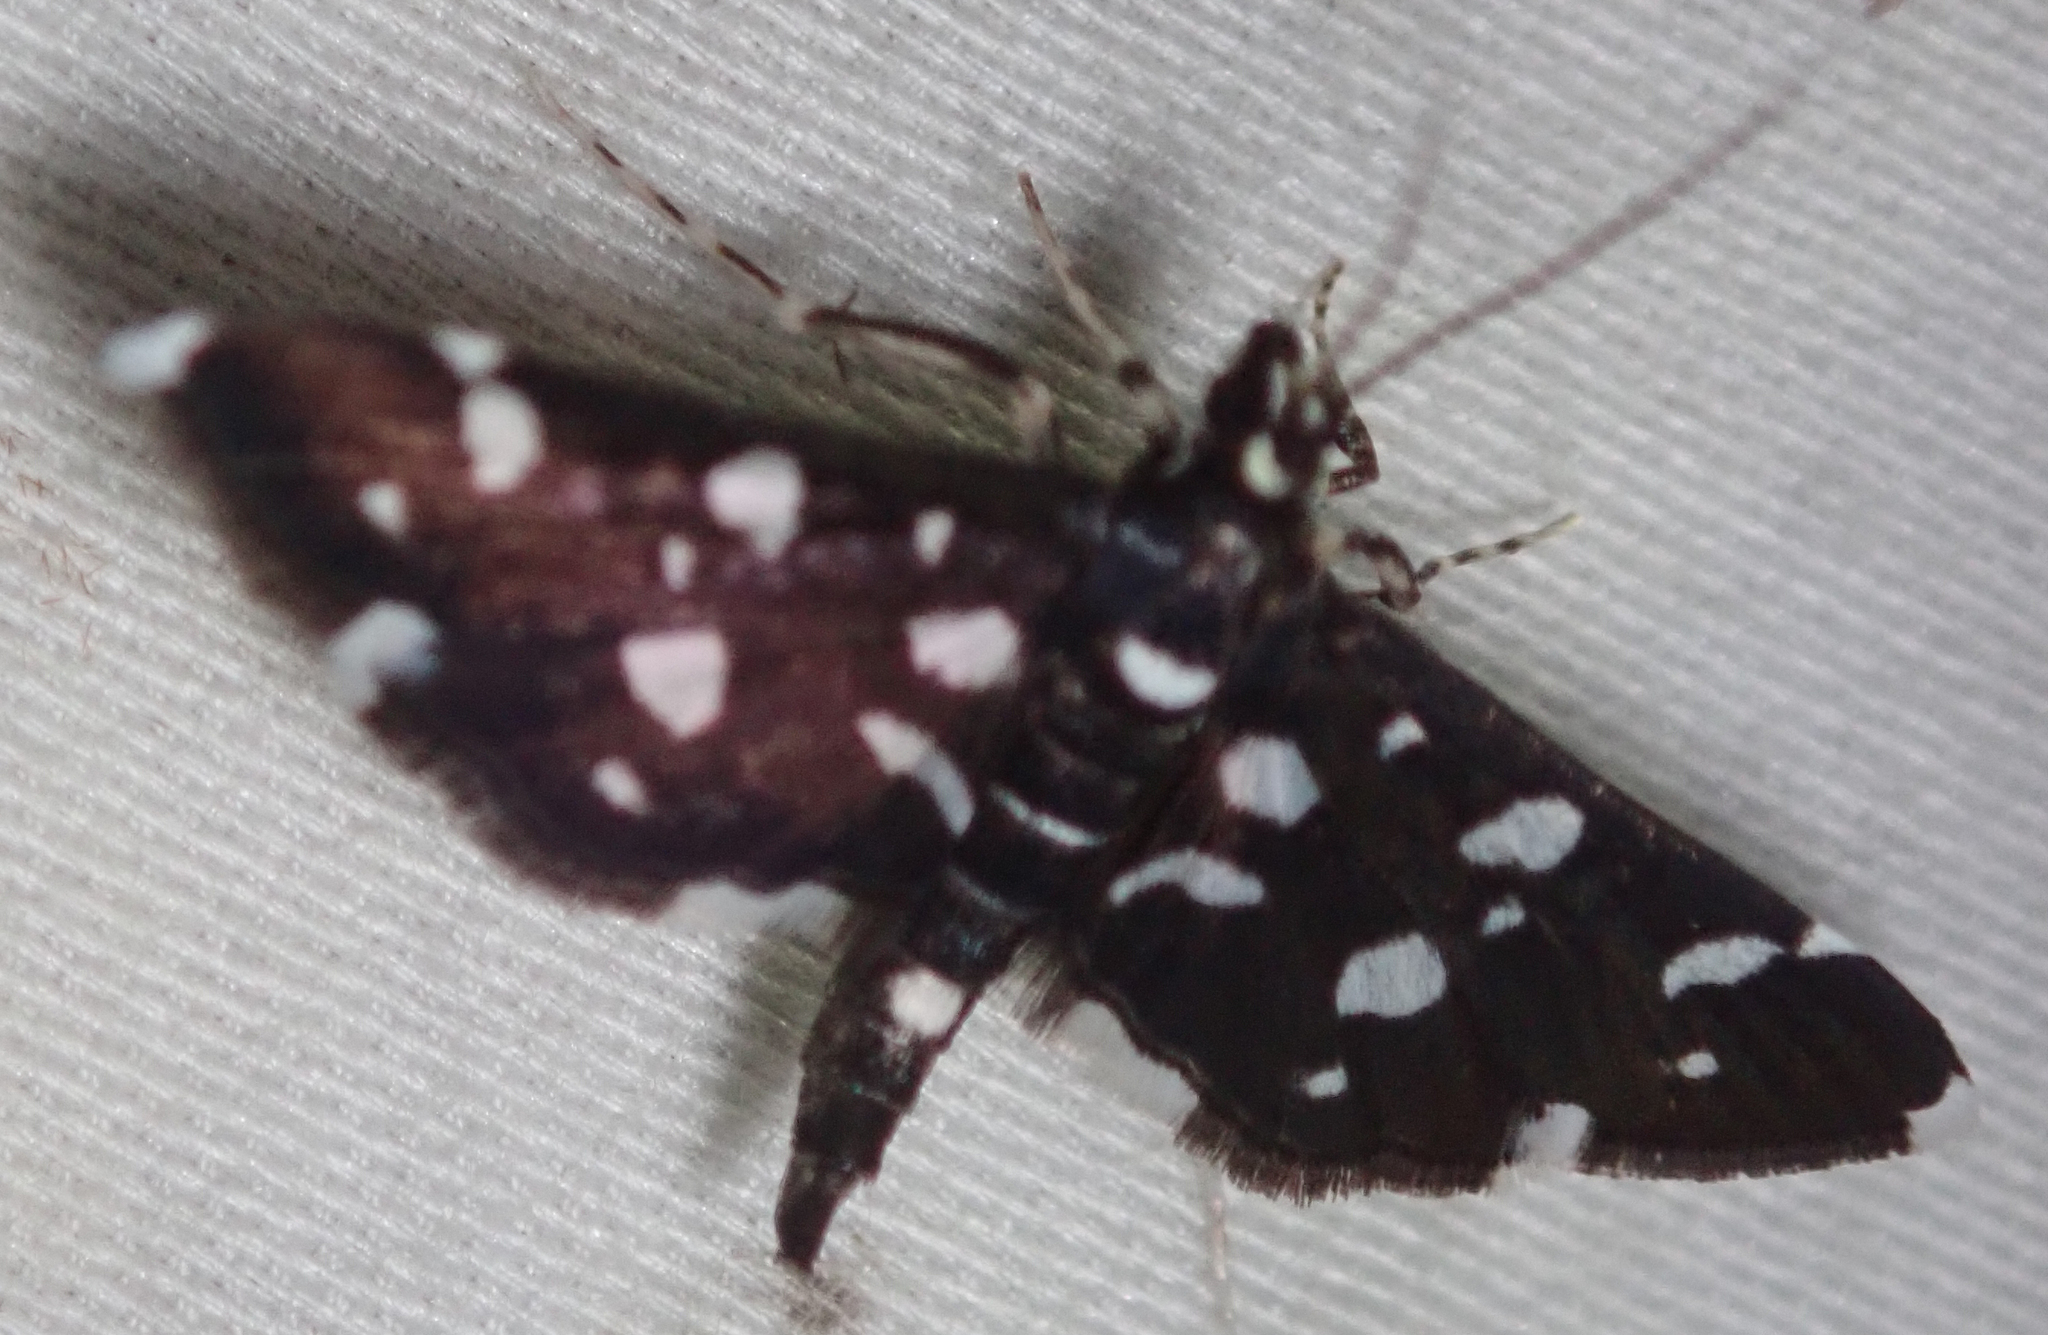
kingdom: Animalia
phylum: Arthropoda
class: Insecta
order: Lepidoptera
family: Crambidae
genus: Bocchoris
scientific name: Bocchoris inspersalis
